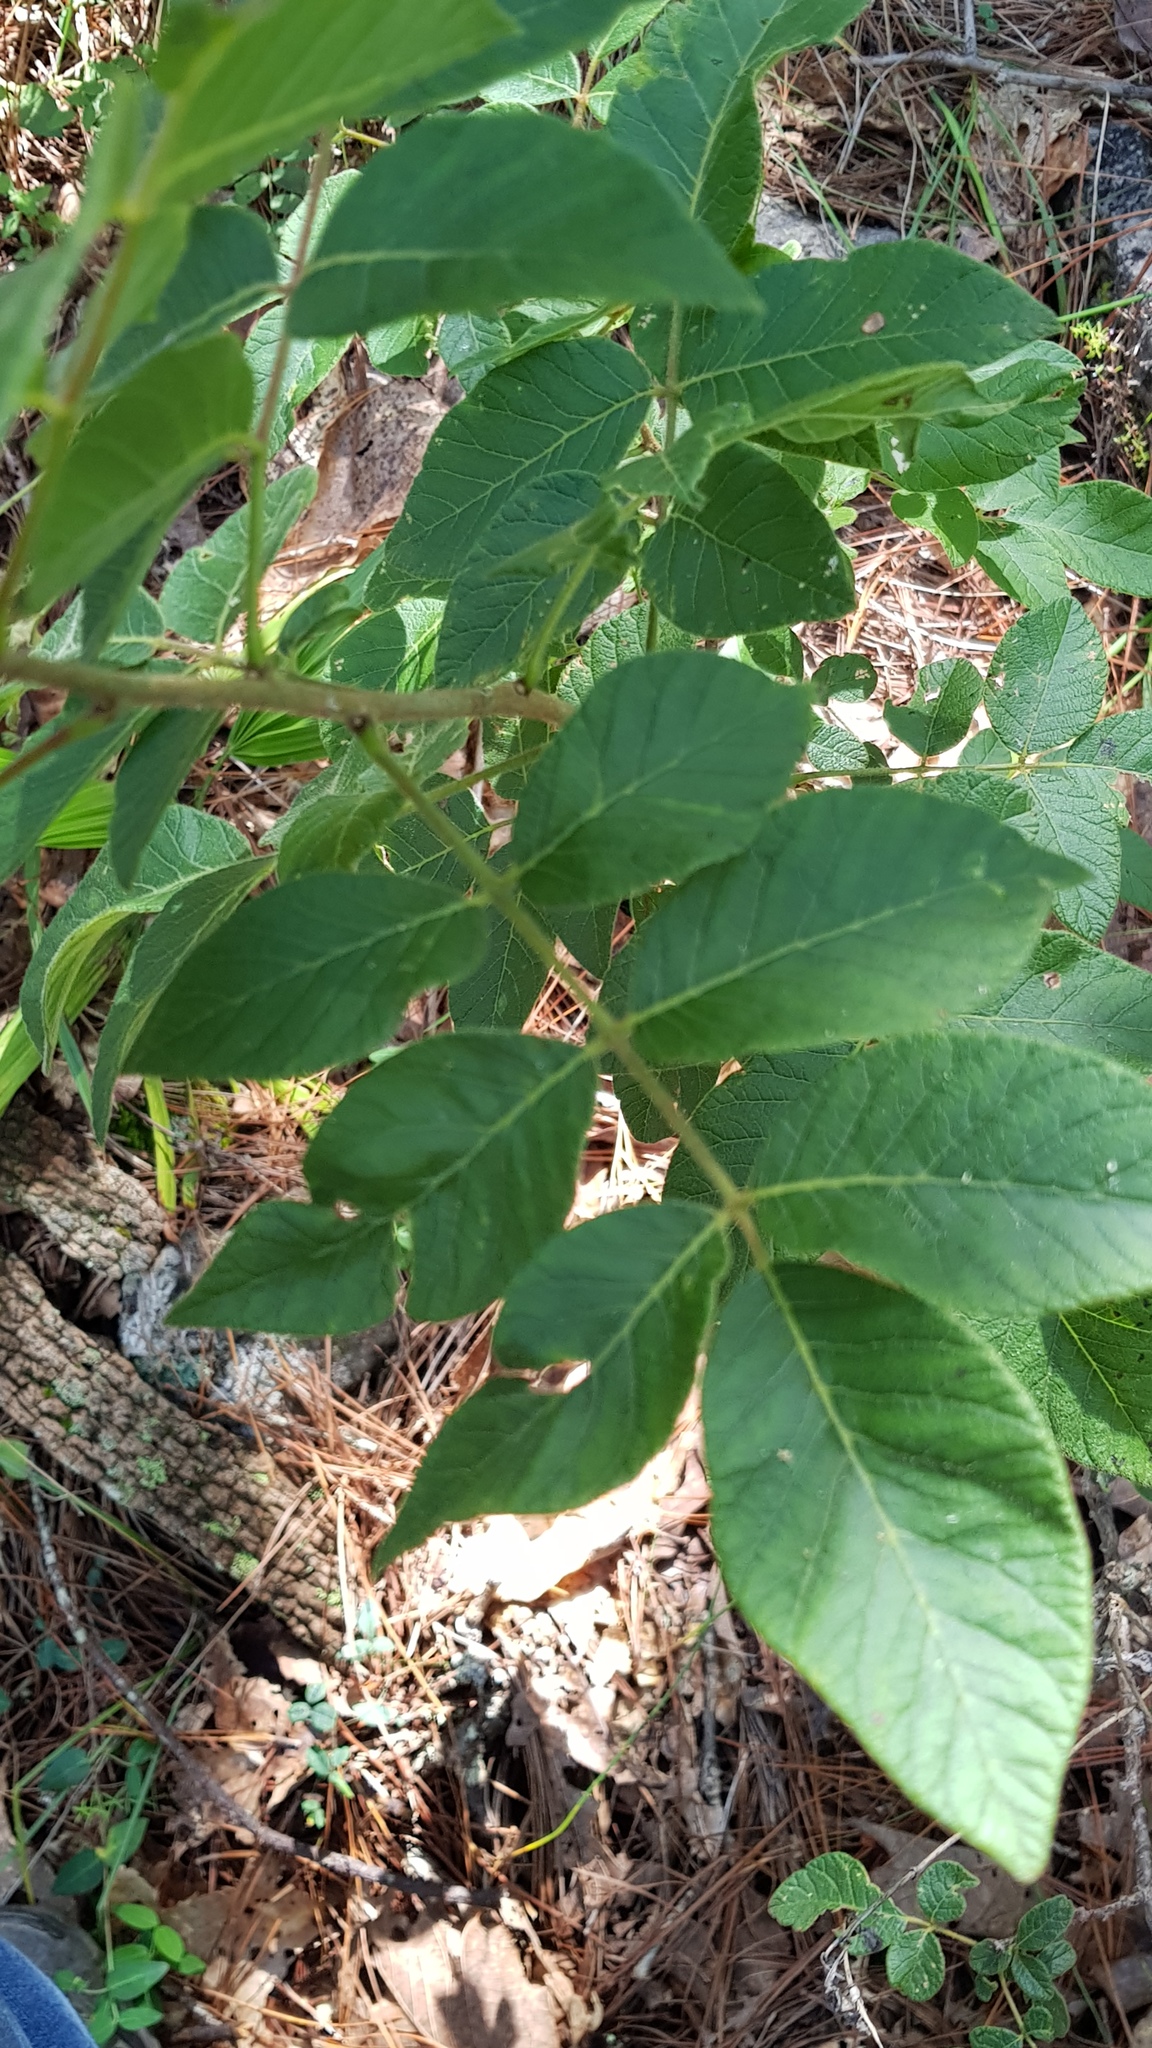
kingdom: Plantae
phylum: Tracheophyta
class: Magnoliopsida
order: Sapindales
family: Anacardiaceae
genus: Rhus
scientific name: Rhus virens
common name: Evergreen sumac
